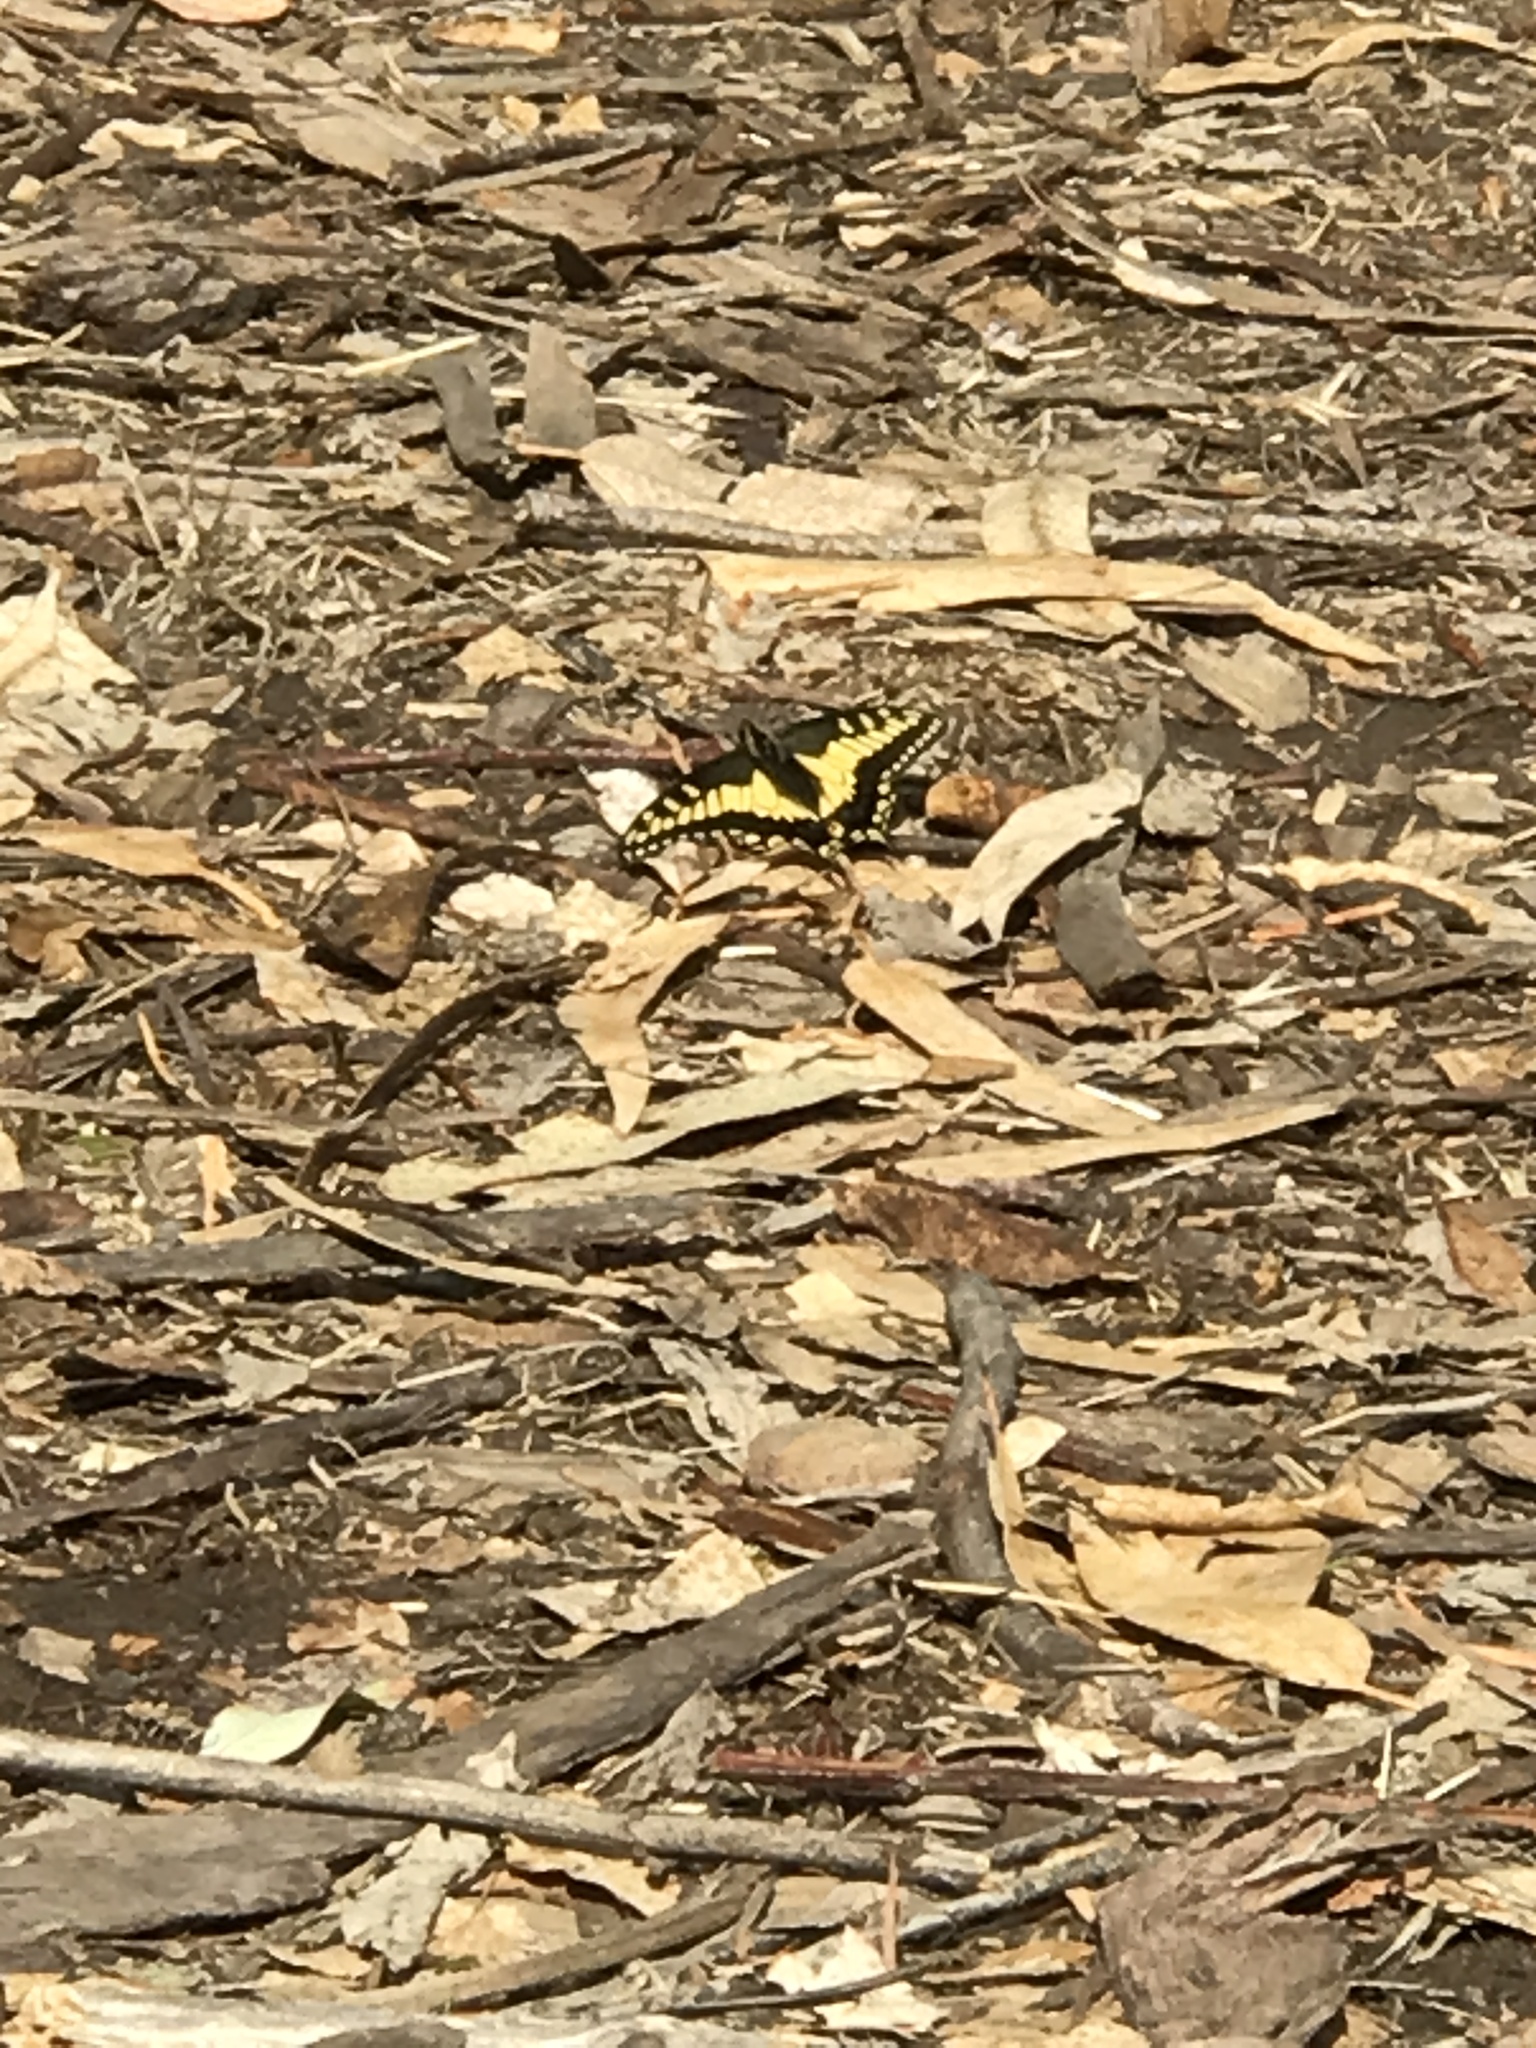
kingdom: Animalia
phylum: Arthropoda
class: Insecta
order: Lepidoptera
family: Papilionidae
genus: Papilio
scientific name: Papilio zelicaon
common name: Anise swallowtail
